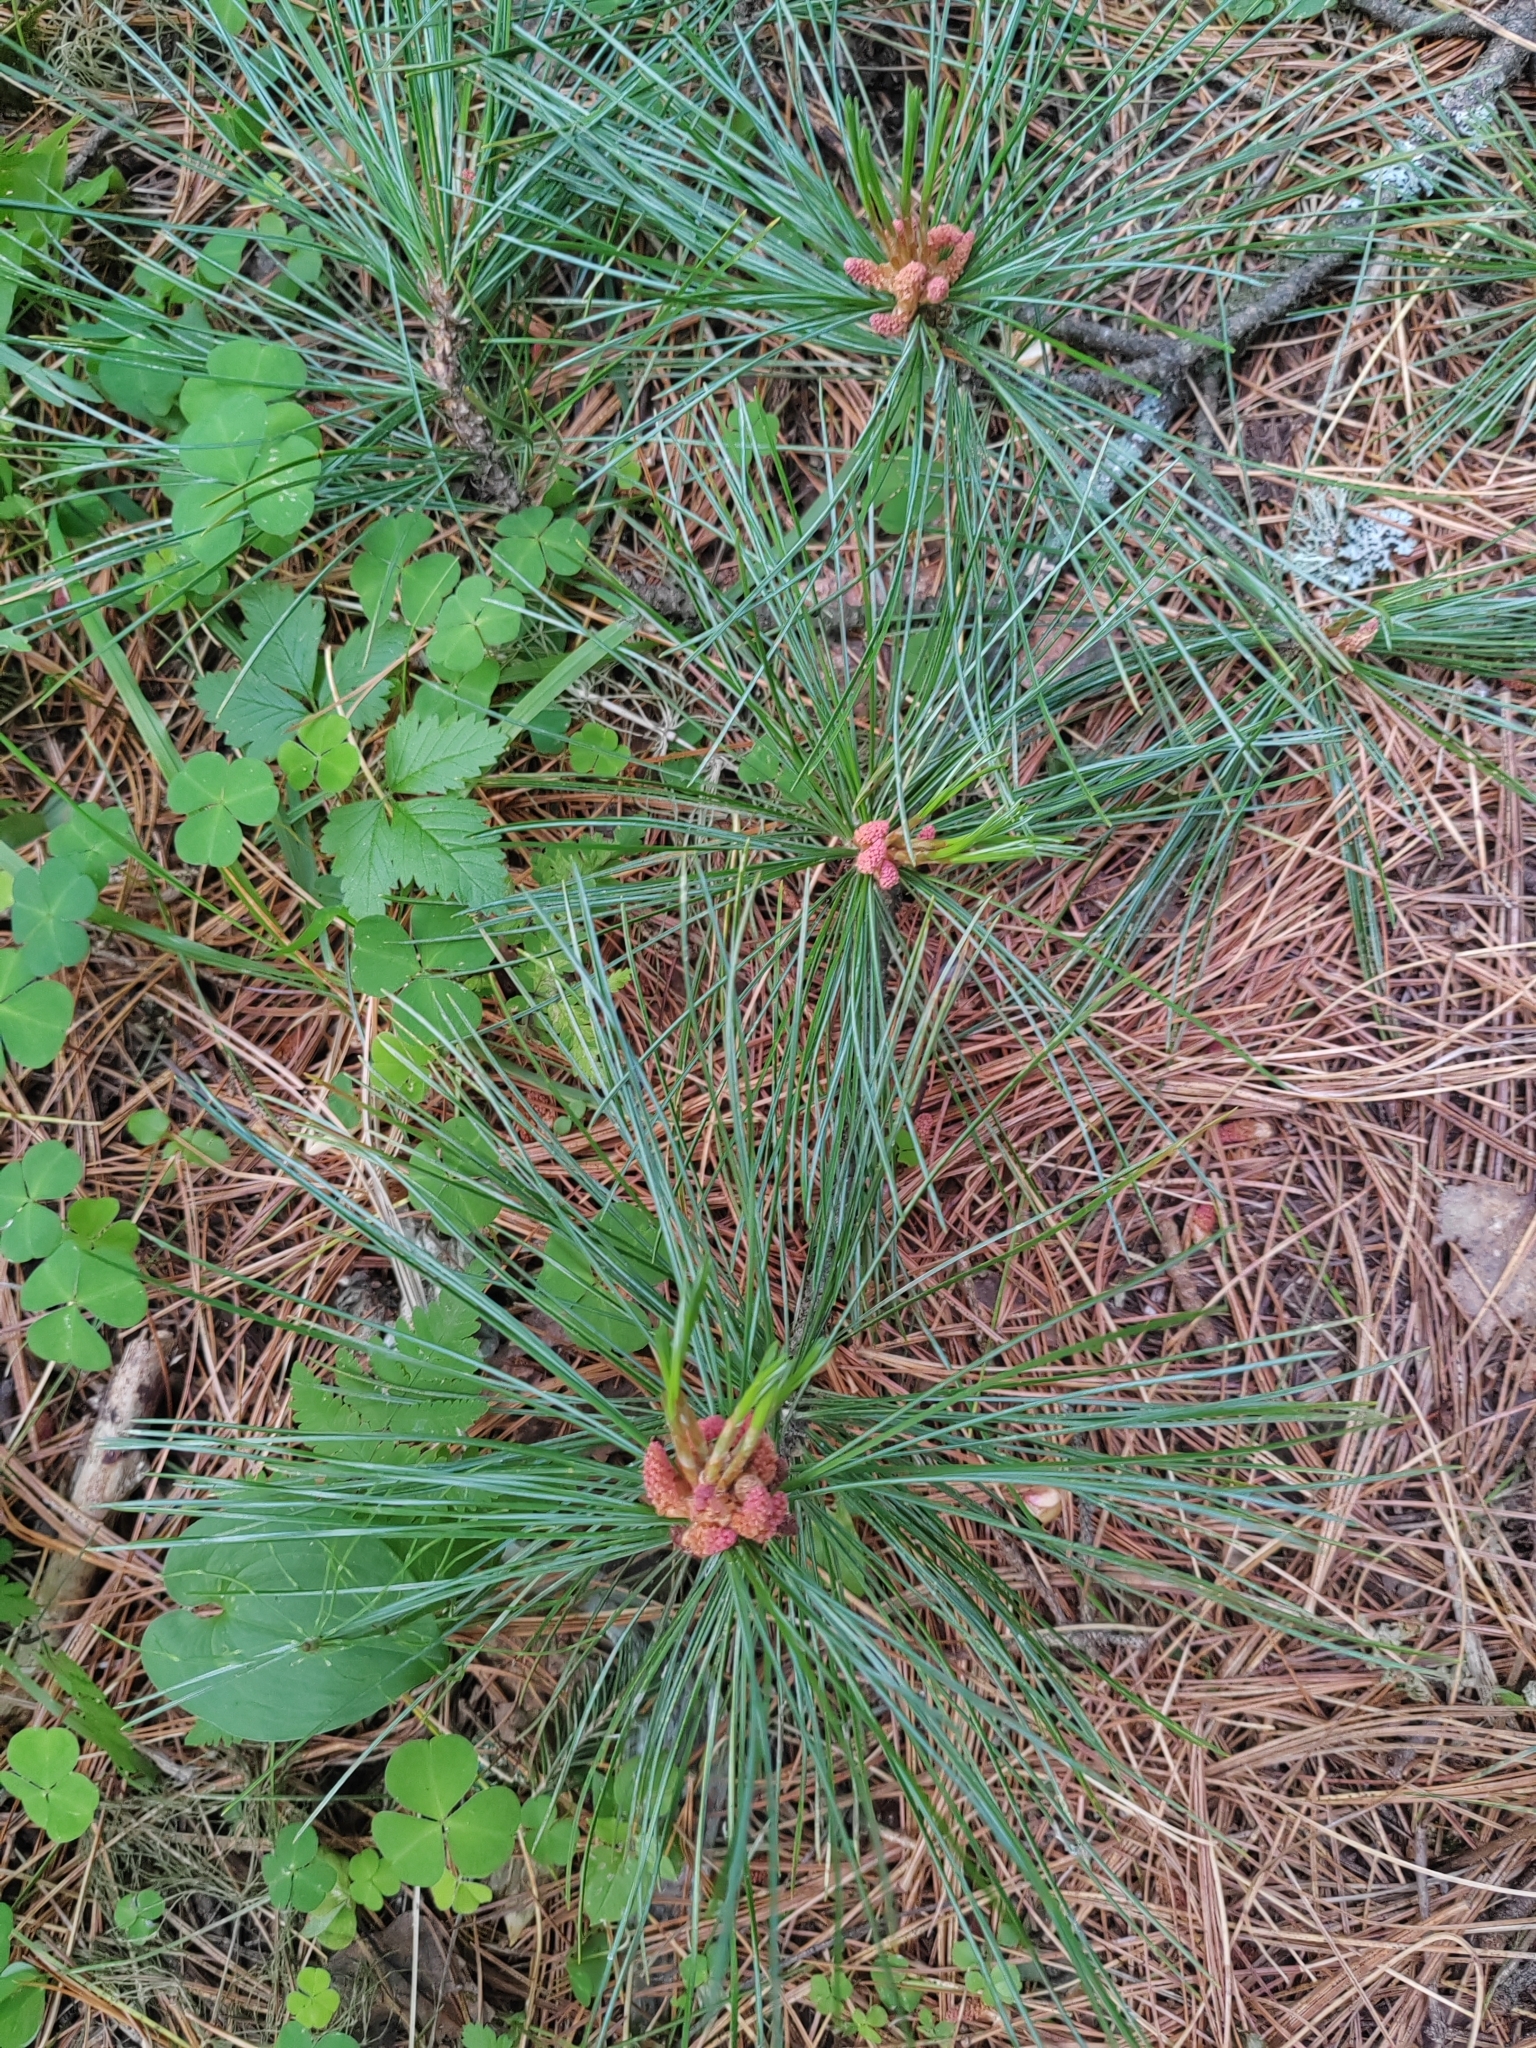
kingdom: Plantae
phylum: Tracheophyta
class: Pinopsida
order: Pinales
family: Pinaceae
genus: Pinus
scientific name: Pinus sibirica
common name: Siberian pine
